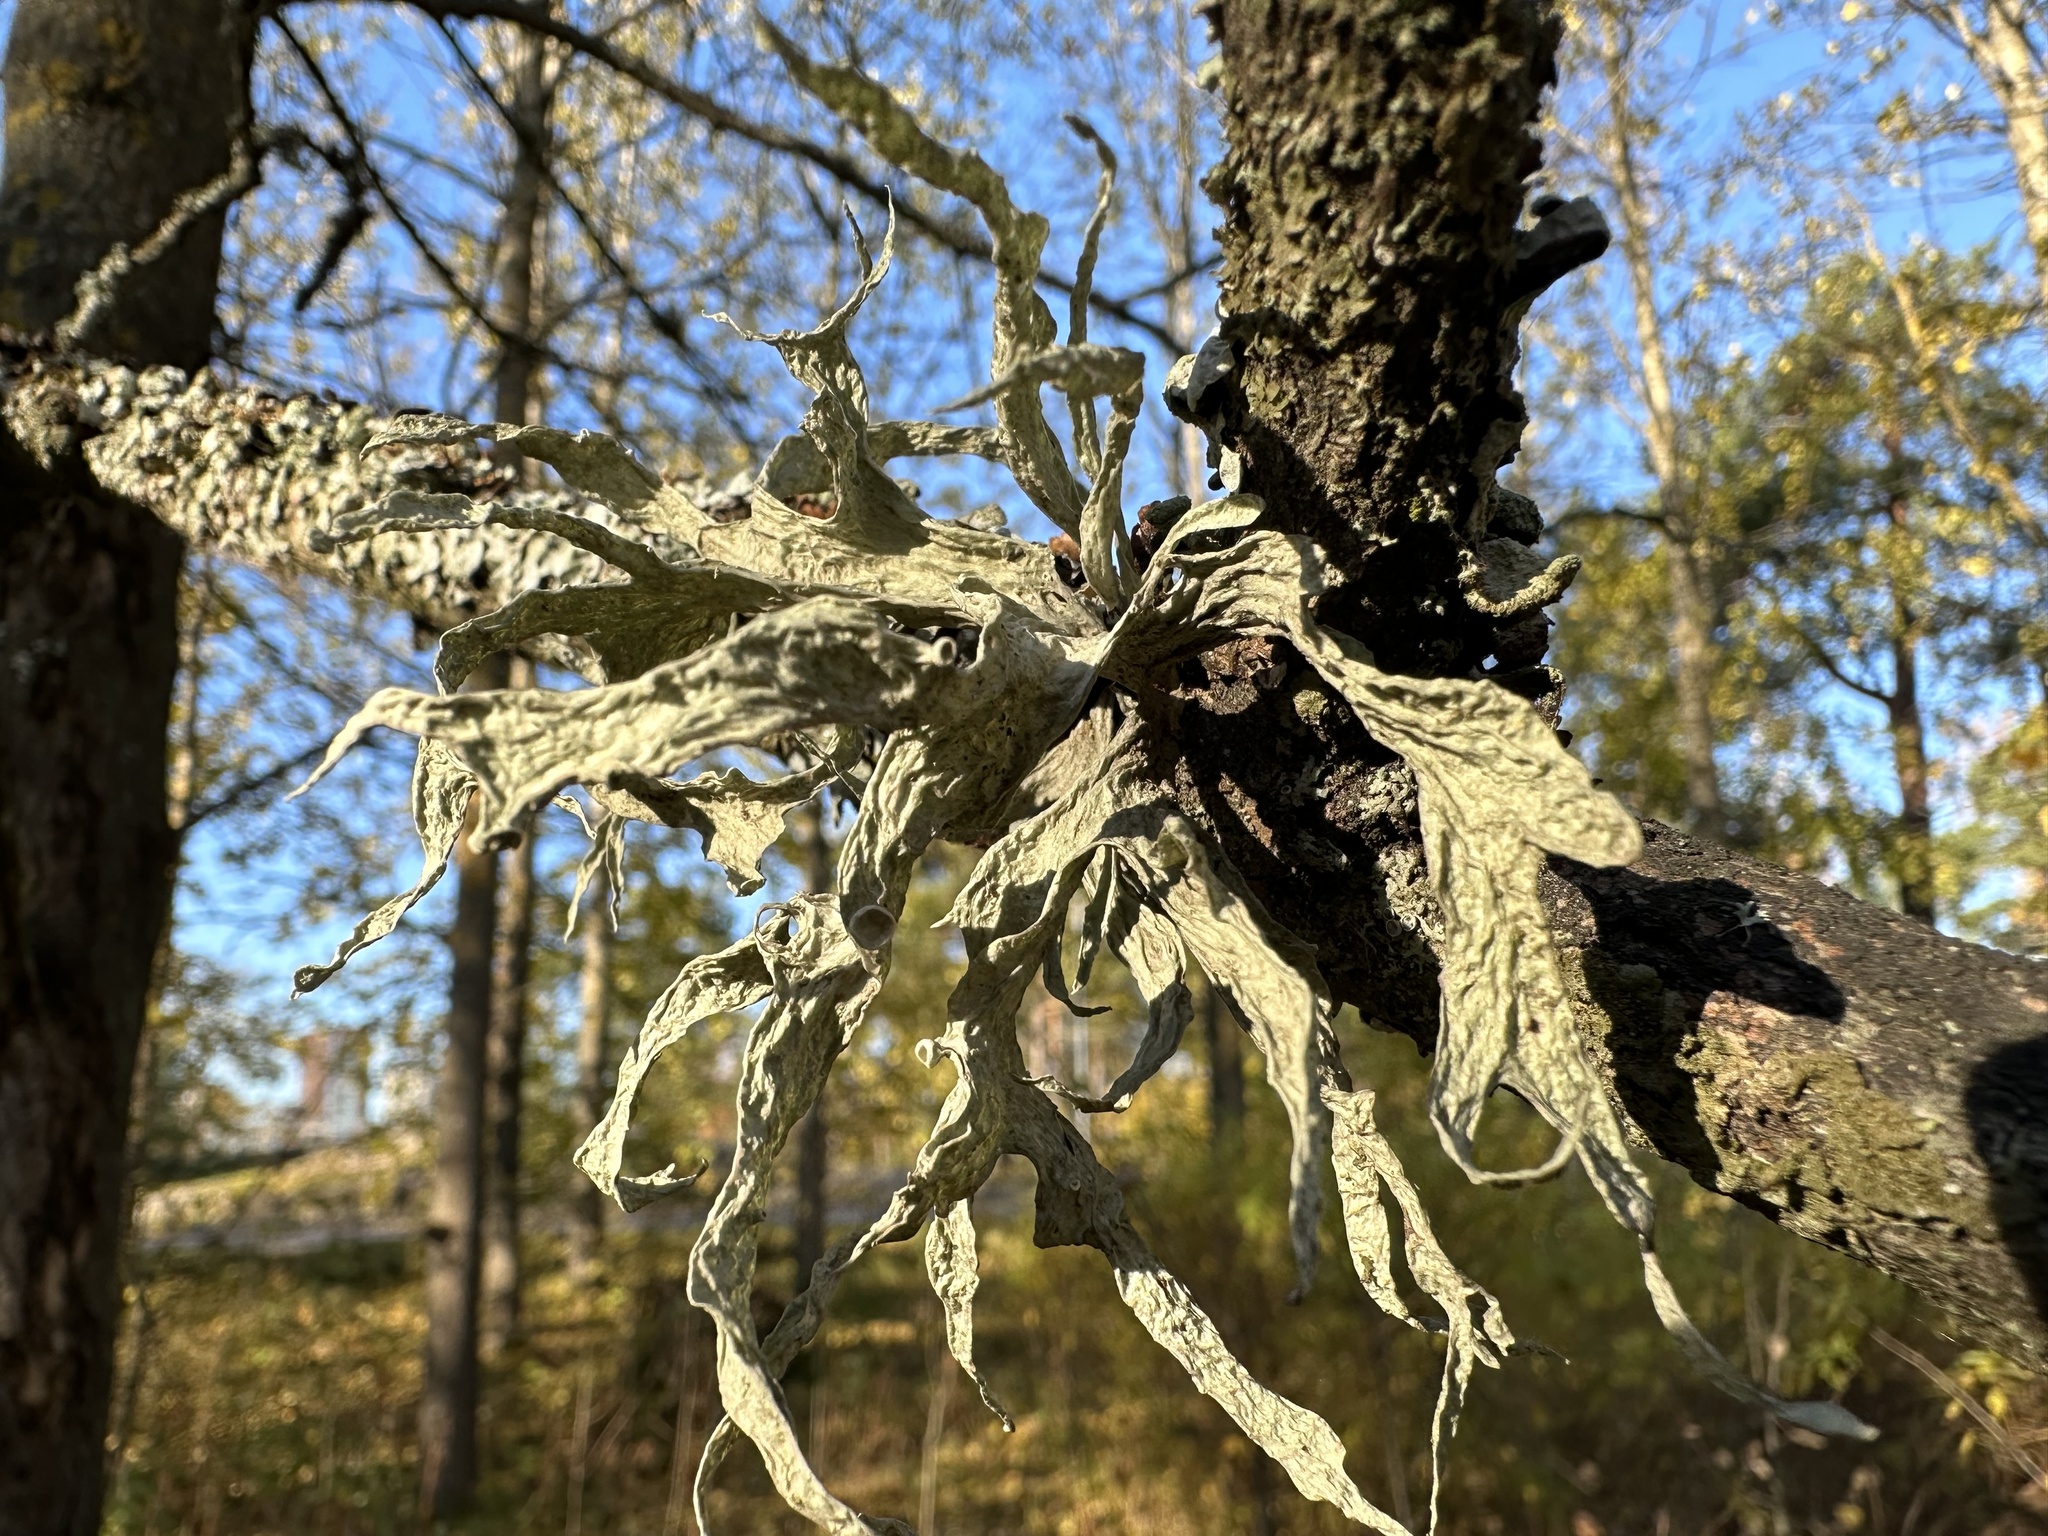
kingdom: Fungi
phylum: Ascomycota
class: Lecanoromycetes
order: Lecanorales
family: Ramalinaceae
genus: Ramalina
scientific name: Ramalina fraxinea
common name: Cartilage lichen
